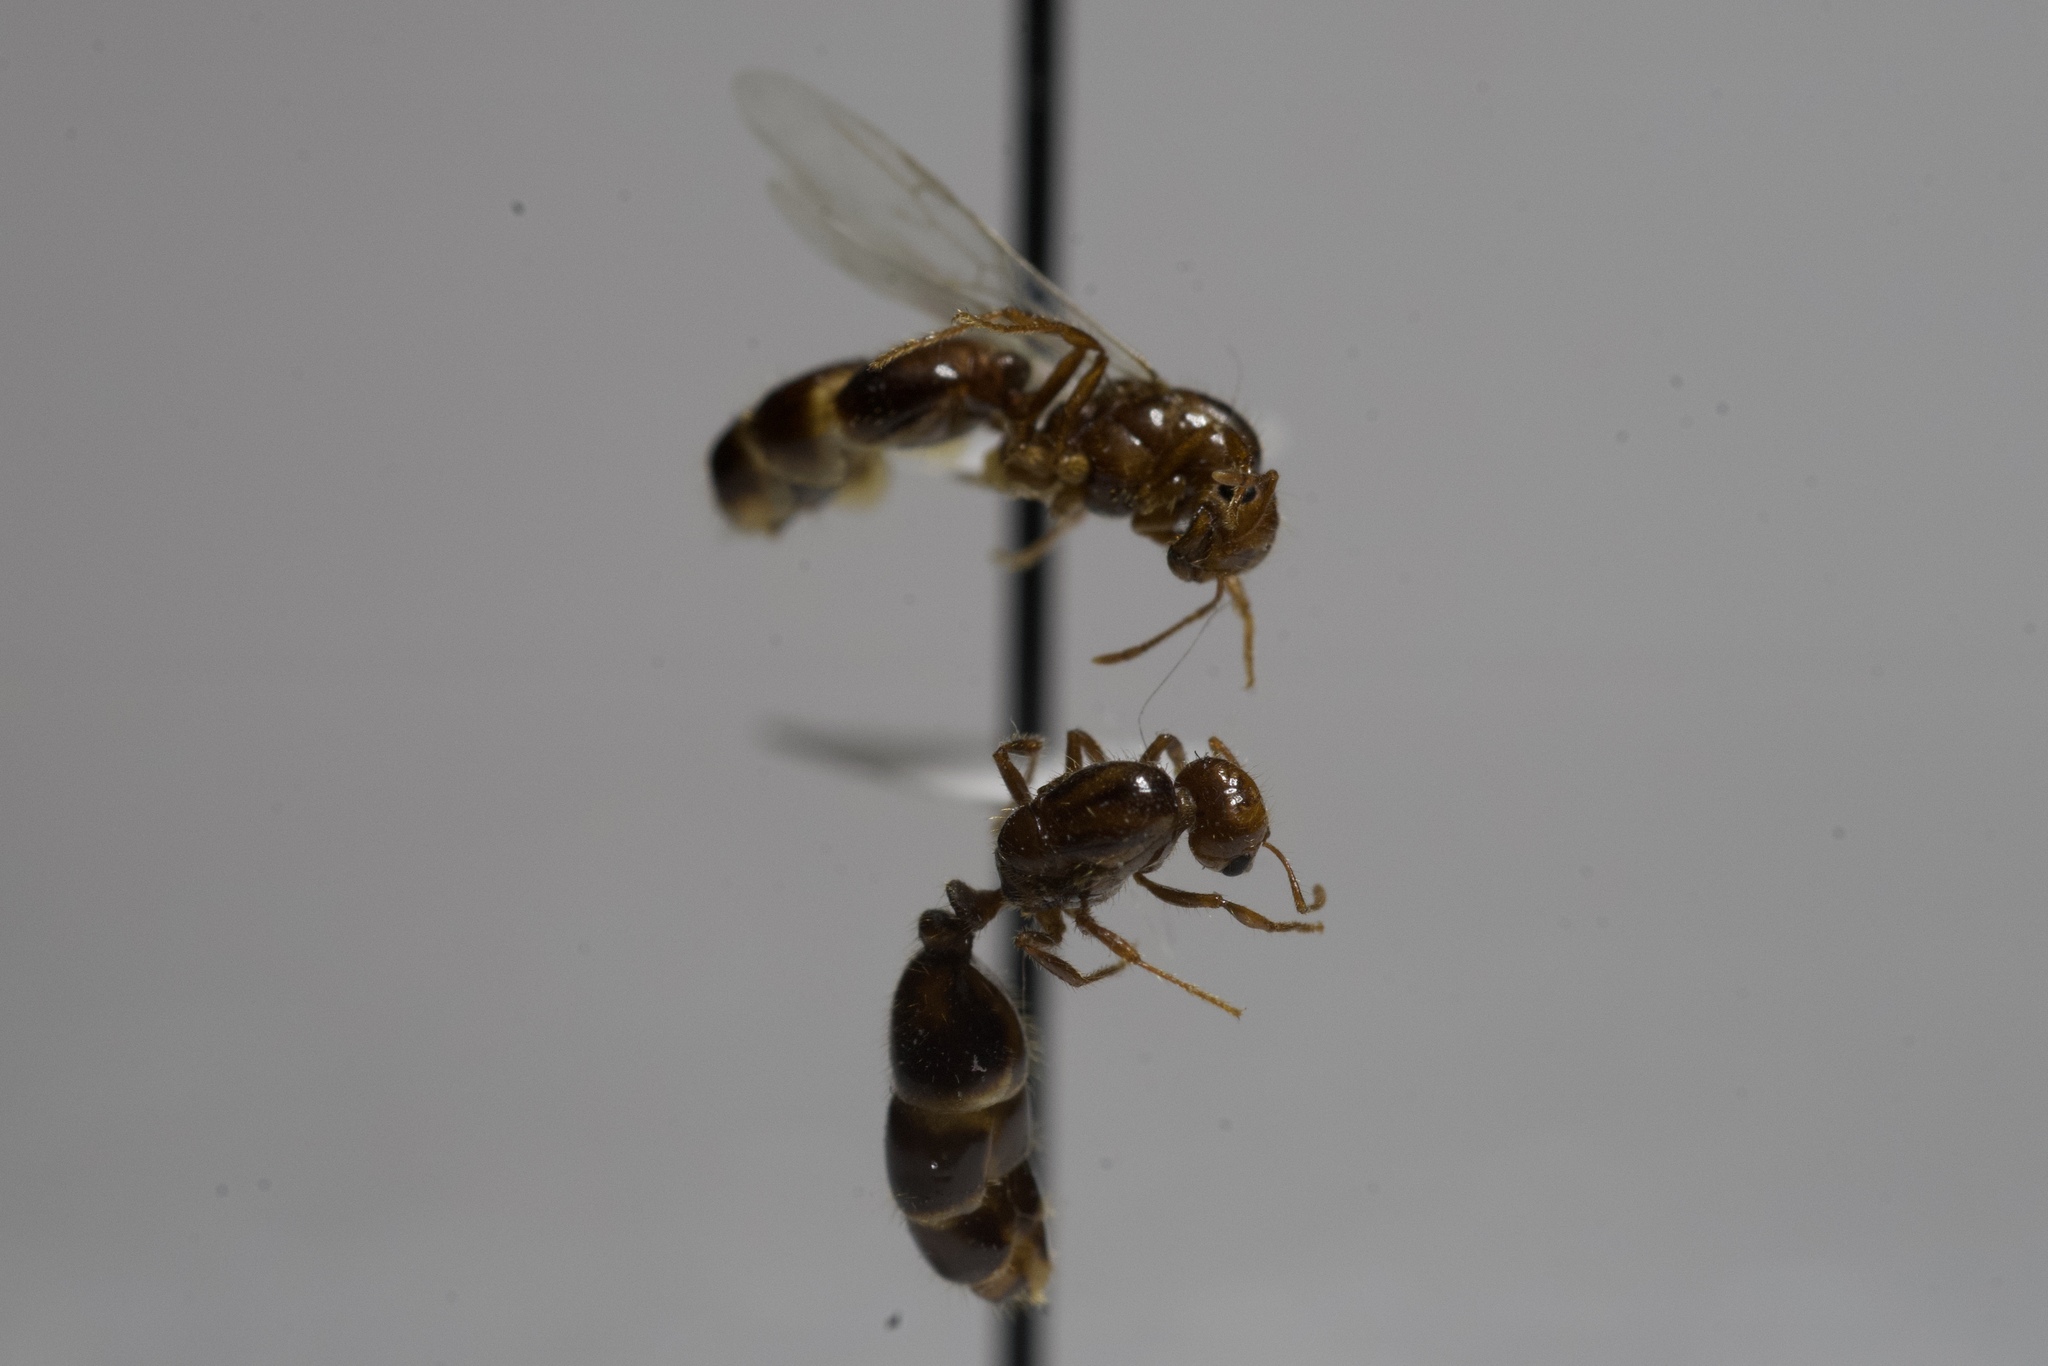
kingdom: Animalia
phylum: Arthropoda
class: Insecta
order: Hymenoptera
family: Formicidae
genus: Solenopsis
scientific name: Solenopsis invicta
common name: Red imported fire ant
